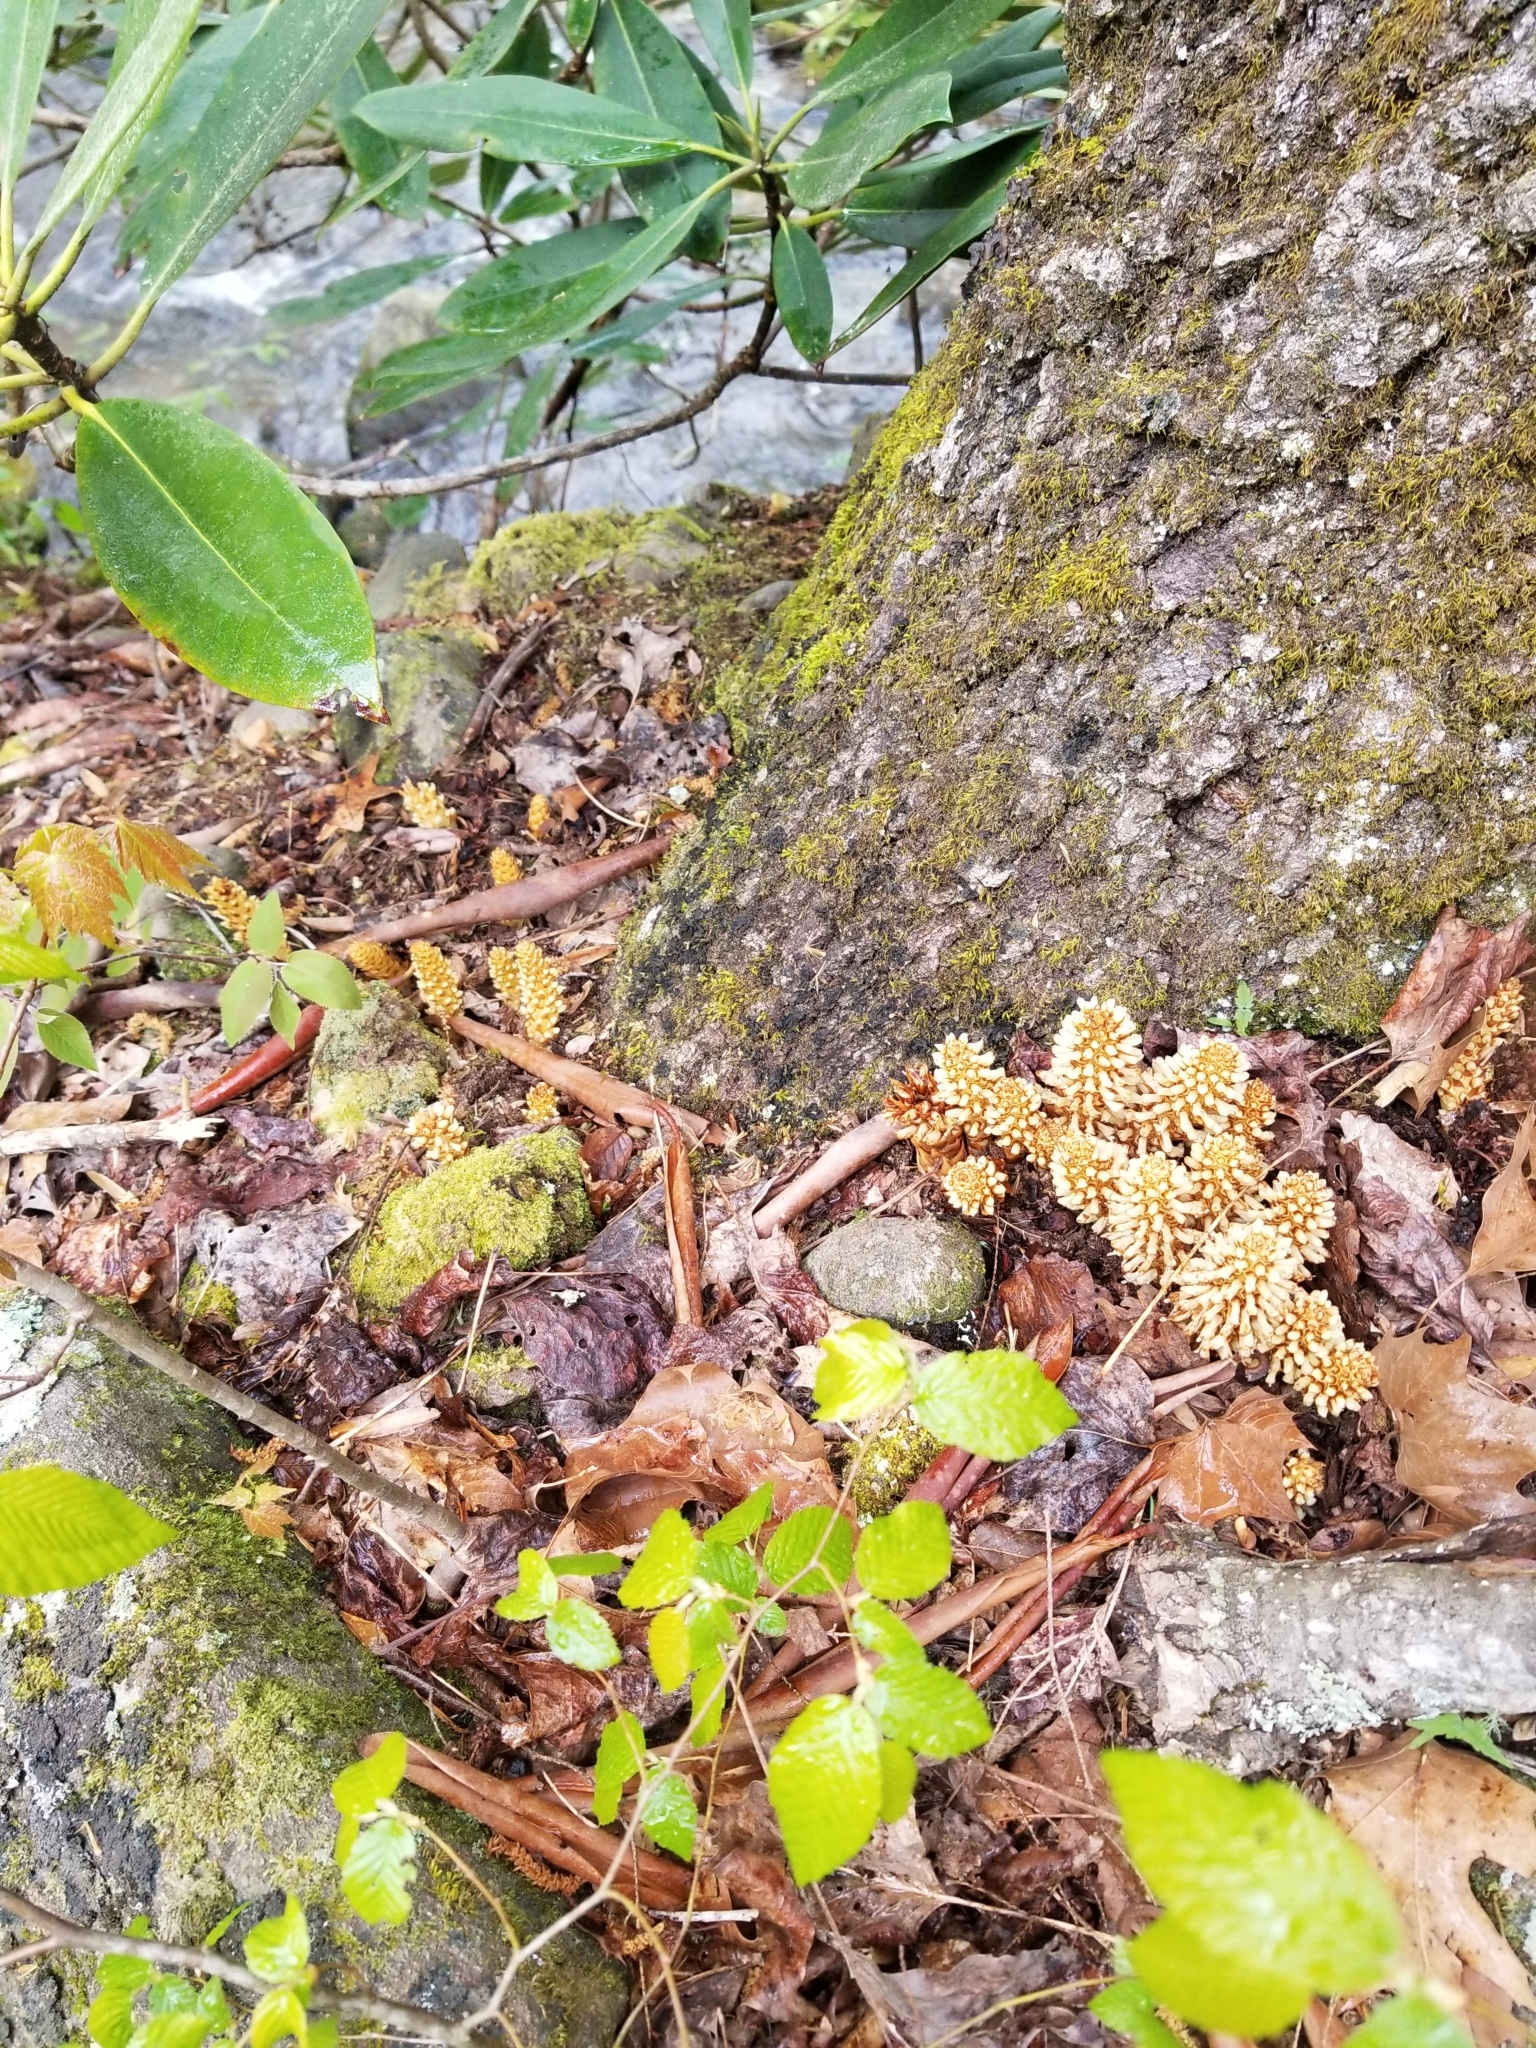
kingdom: Plantae
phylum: Tracheophyta
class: Magnoliopsida
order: Lamiales
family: Orobanchaceae
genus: Conopholis
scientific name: Conopholis americana
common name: American cancer-root
